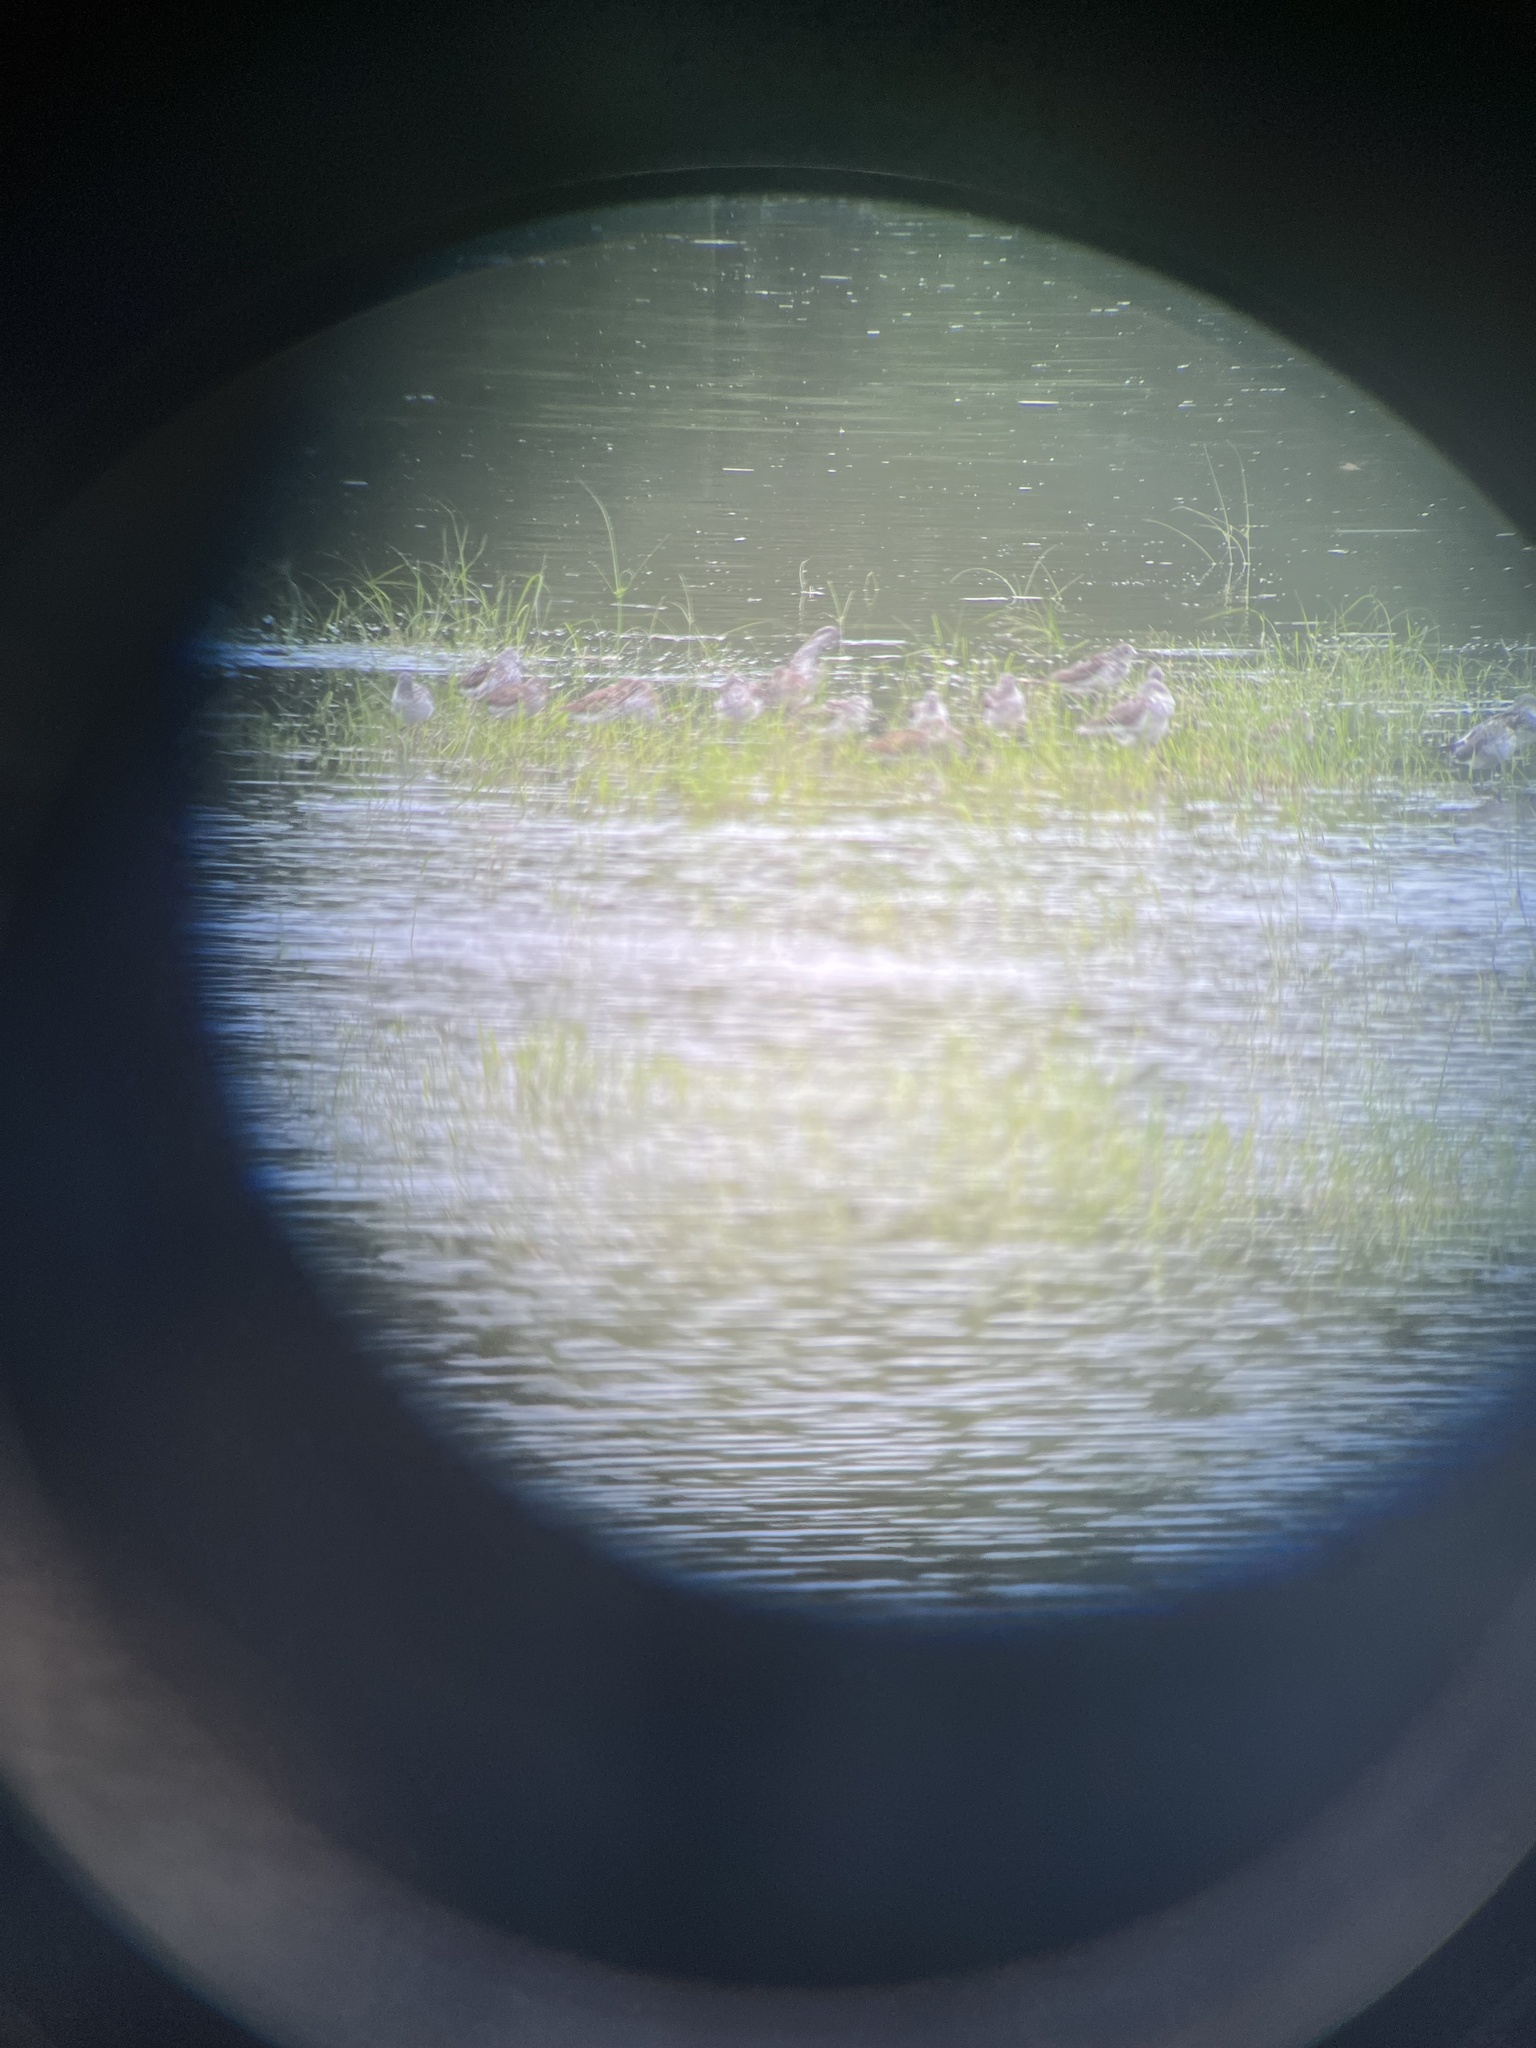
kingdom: Animalia
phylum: Chordata
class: Aves
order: Charadriiformes
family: Scolopacidae
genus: Tringa
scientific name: Tringa totanus
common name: Common redshank
